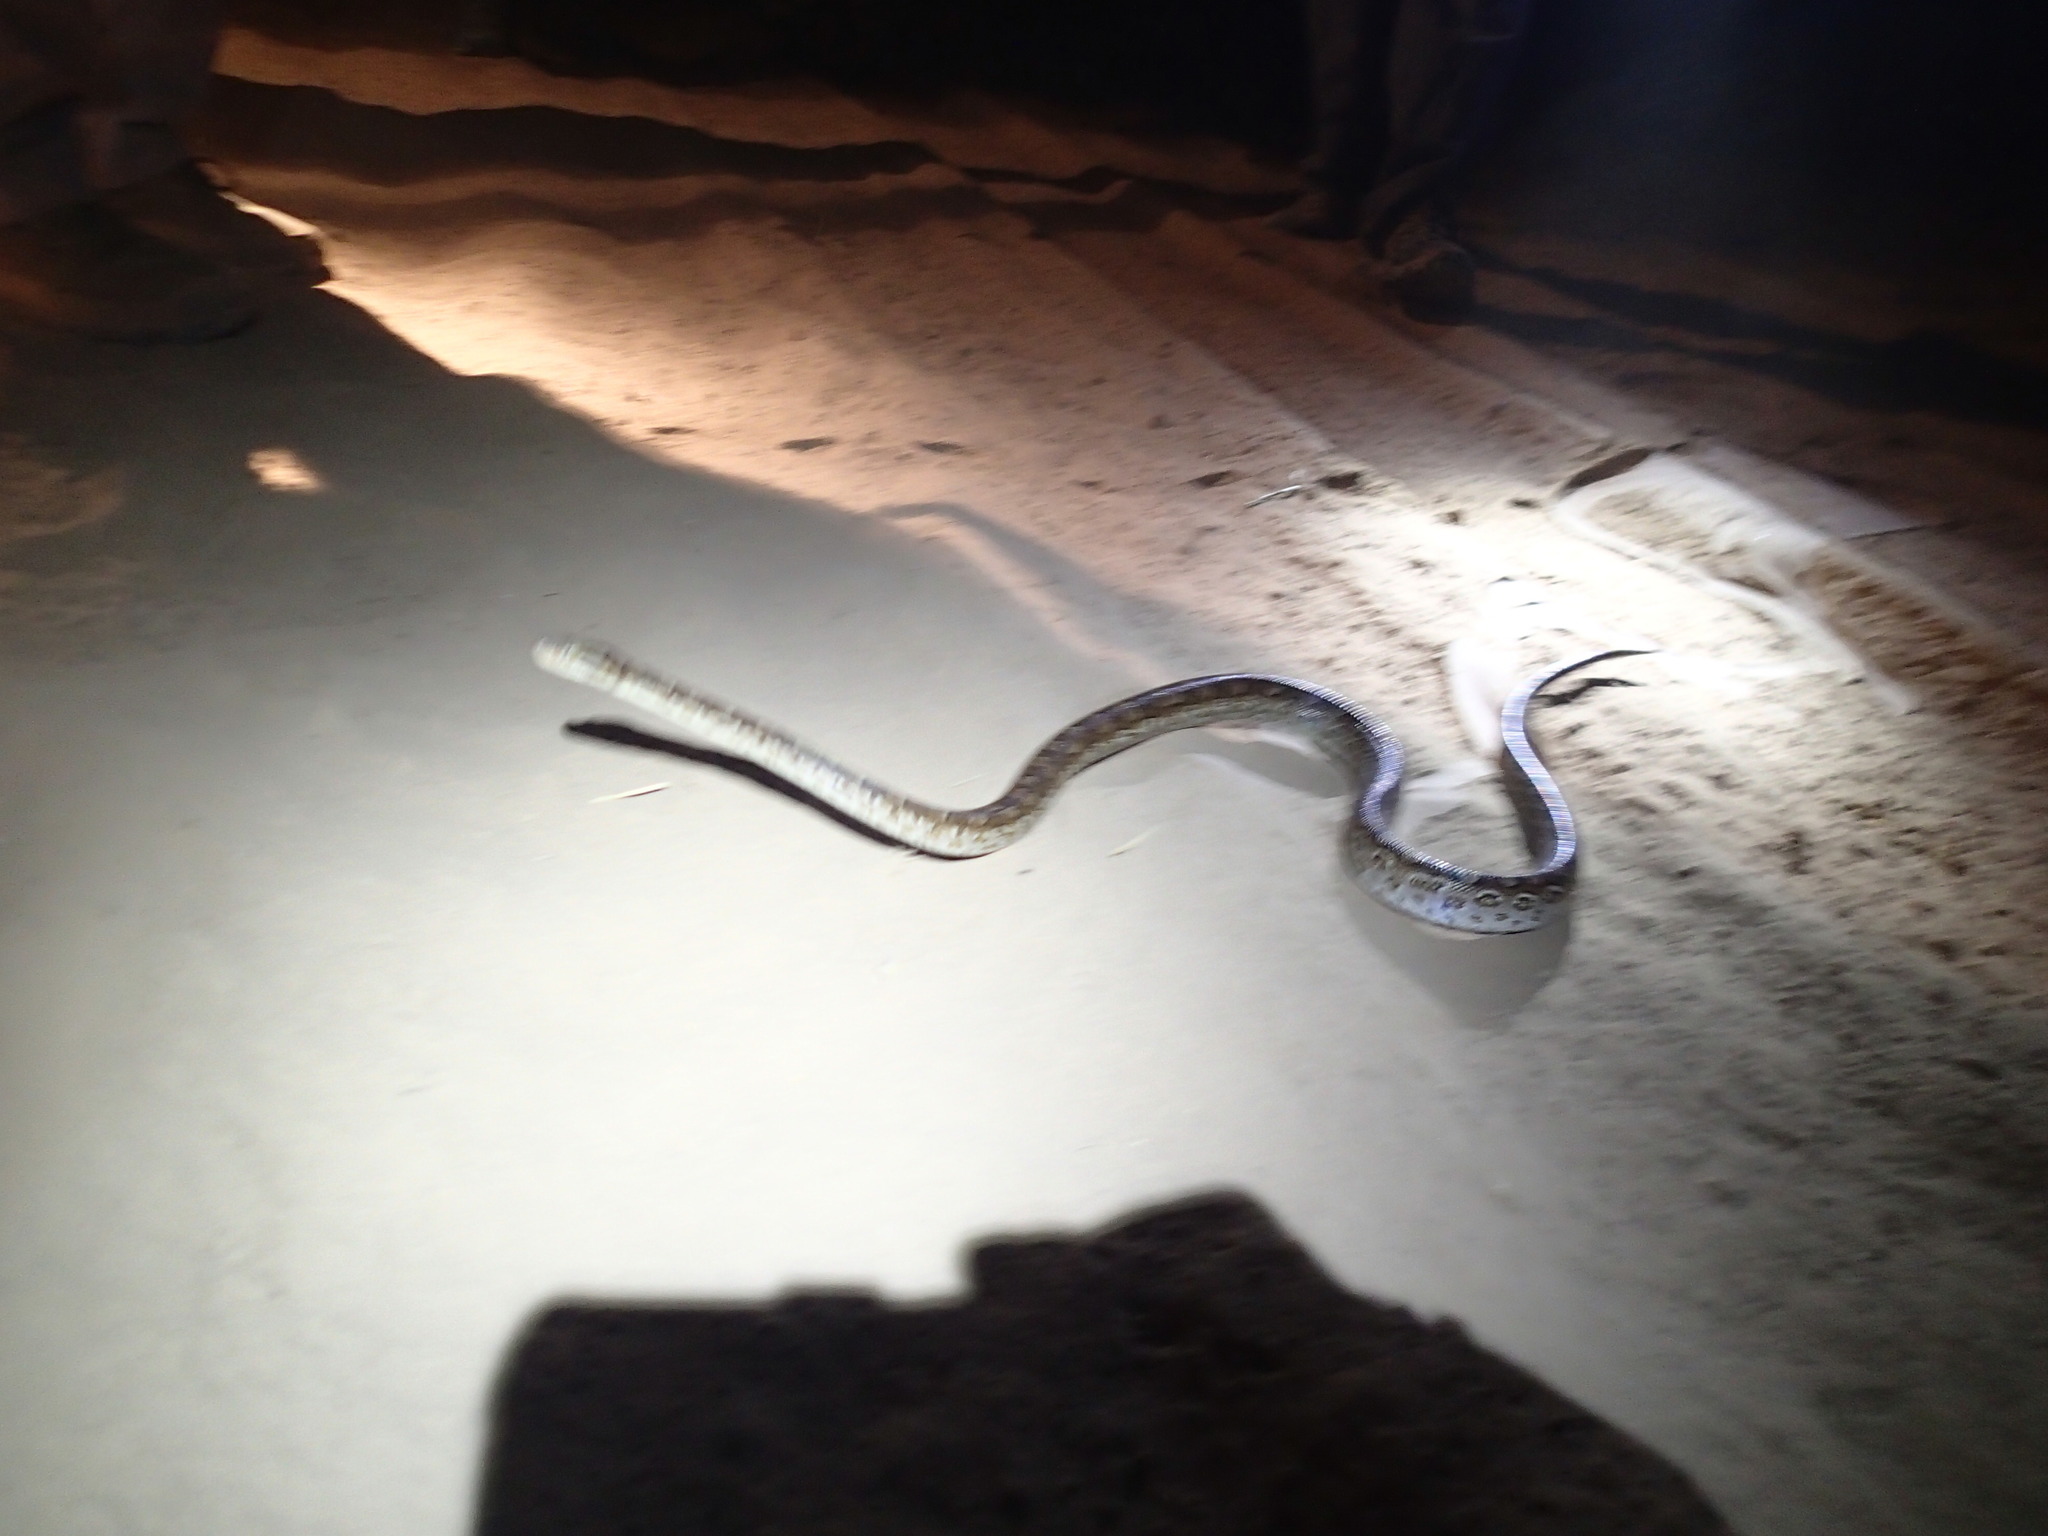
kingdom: Animalia
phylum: Chordata
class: Squamata
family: Boidae
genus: Epicrates
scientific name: Epicrates alvarezi
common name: Argentinian rainbow boa
